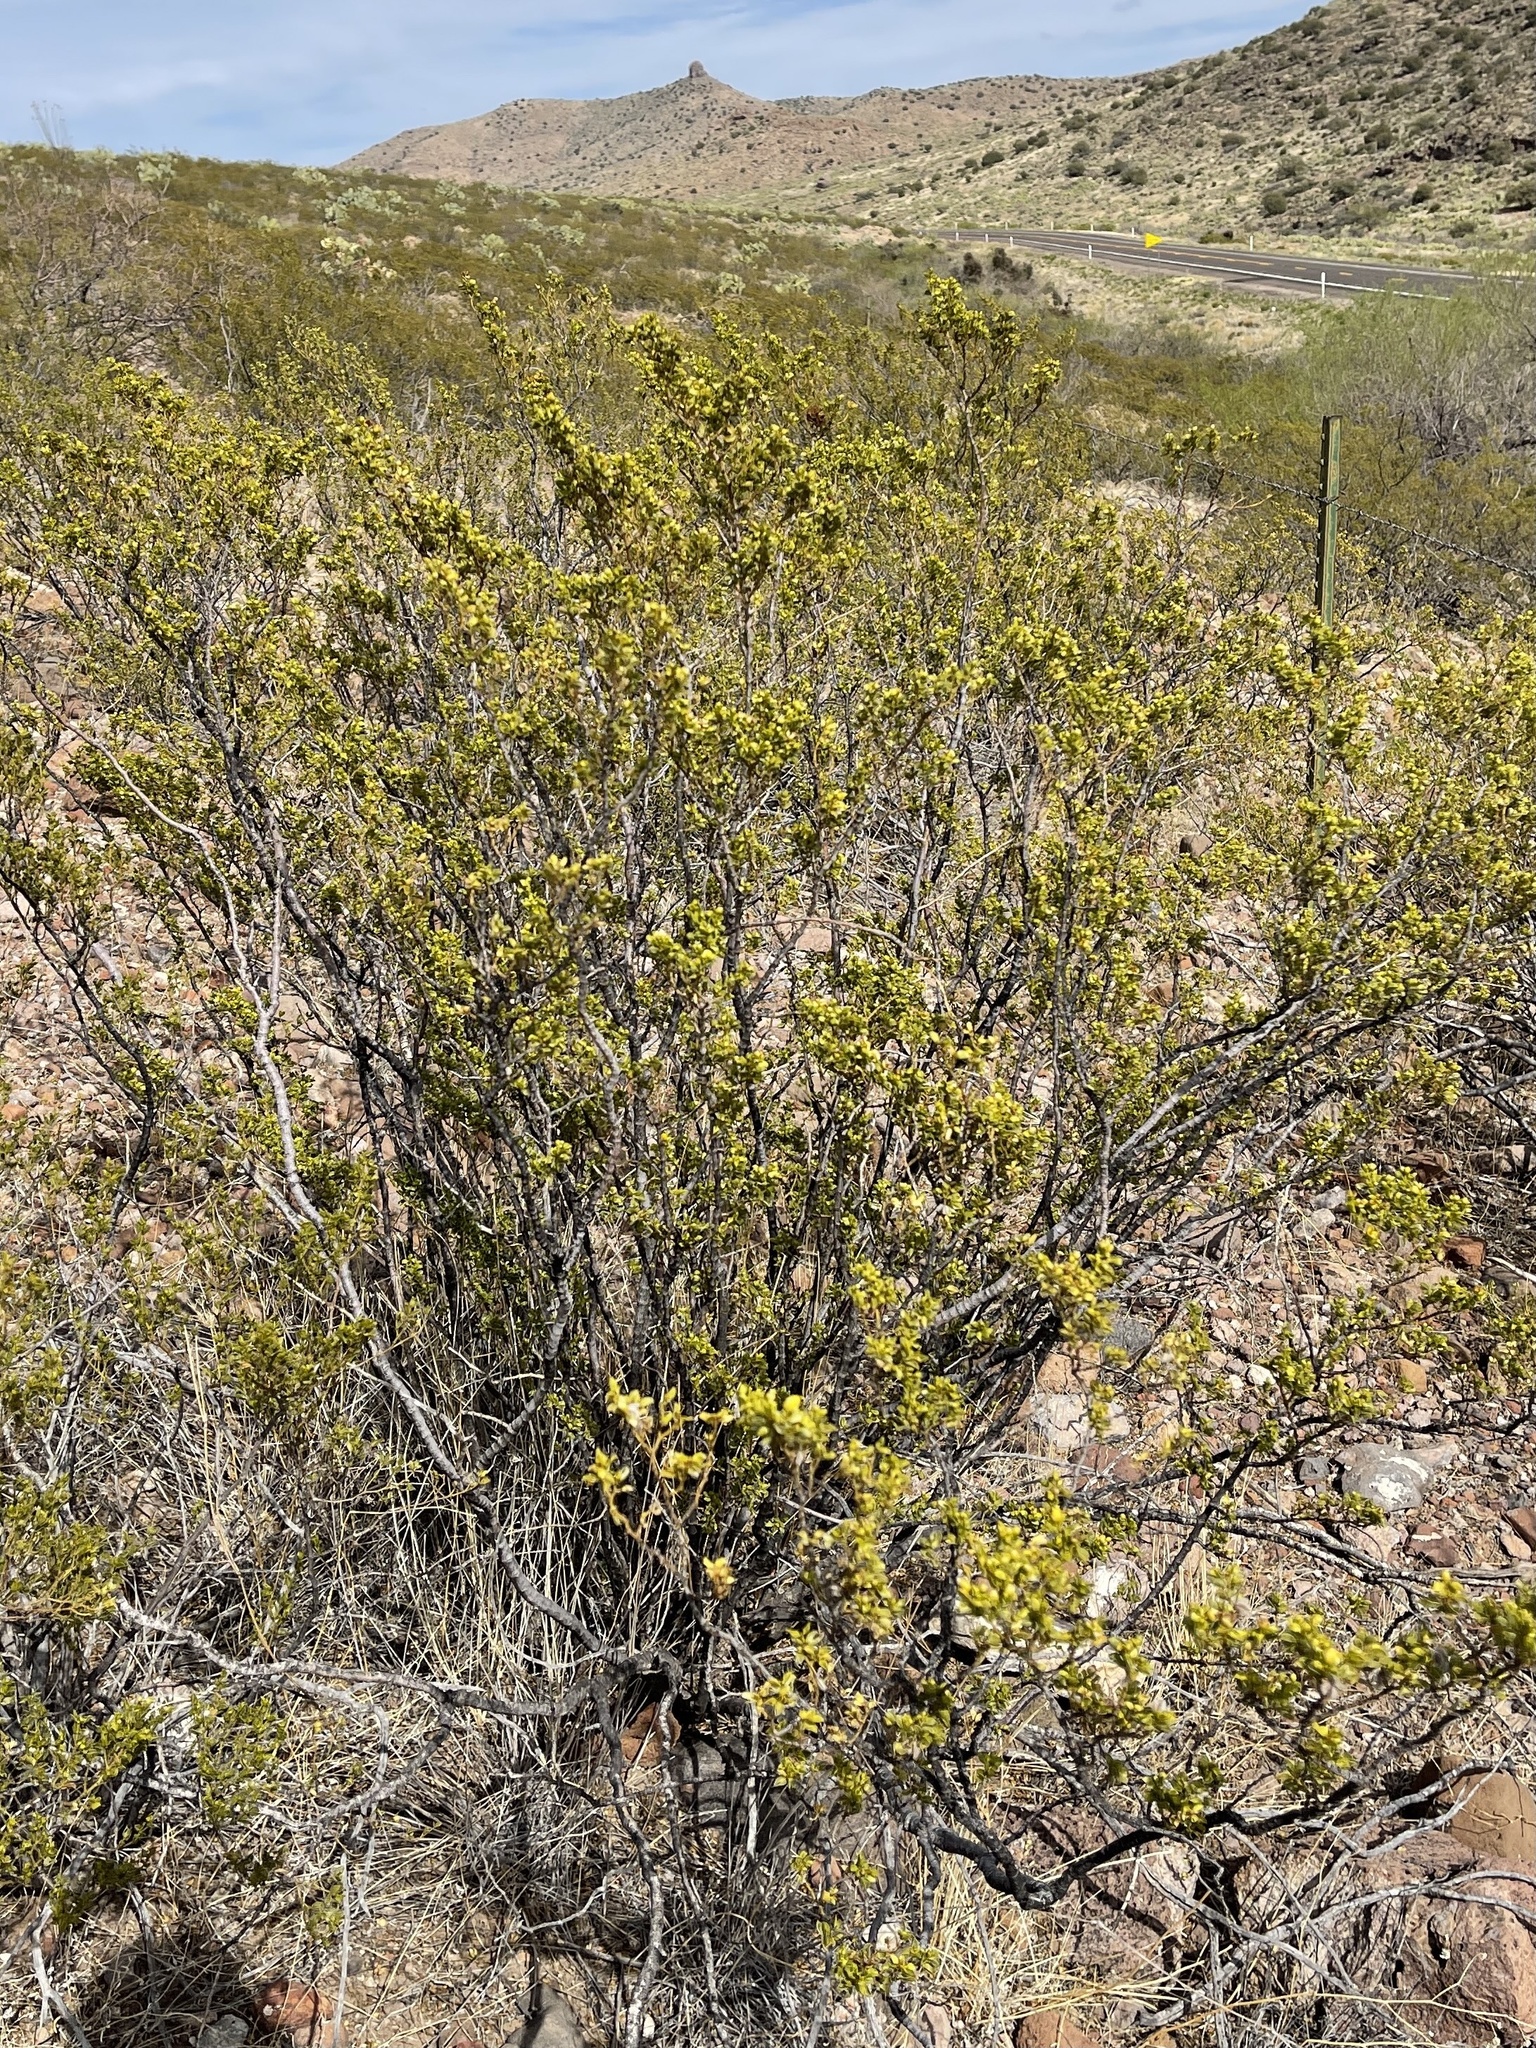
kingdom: Plantae
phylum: Tracheophyta
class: Magnoliopsida
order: Zygophyllales
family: Zygophyllaceae
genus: Larrea
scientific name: Larrea tridentata
